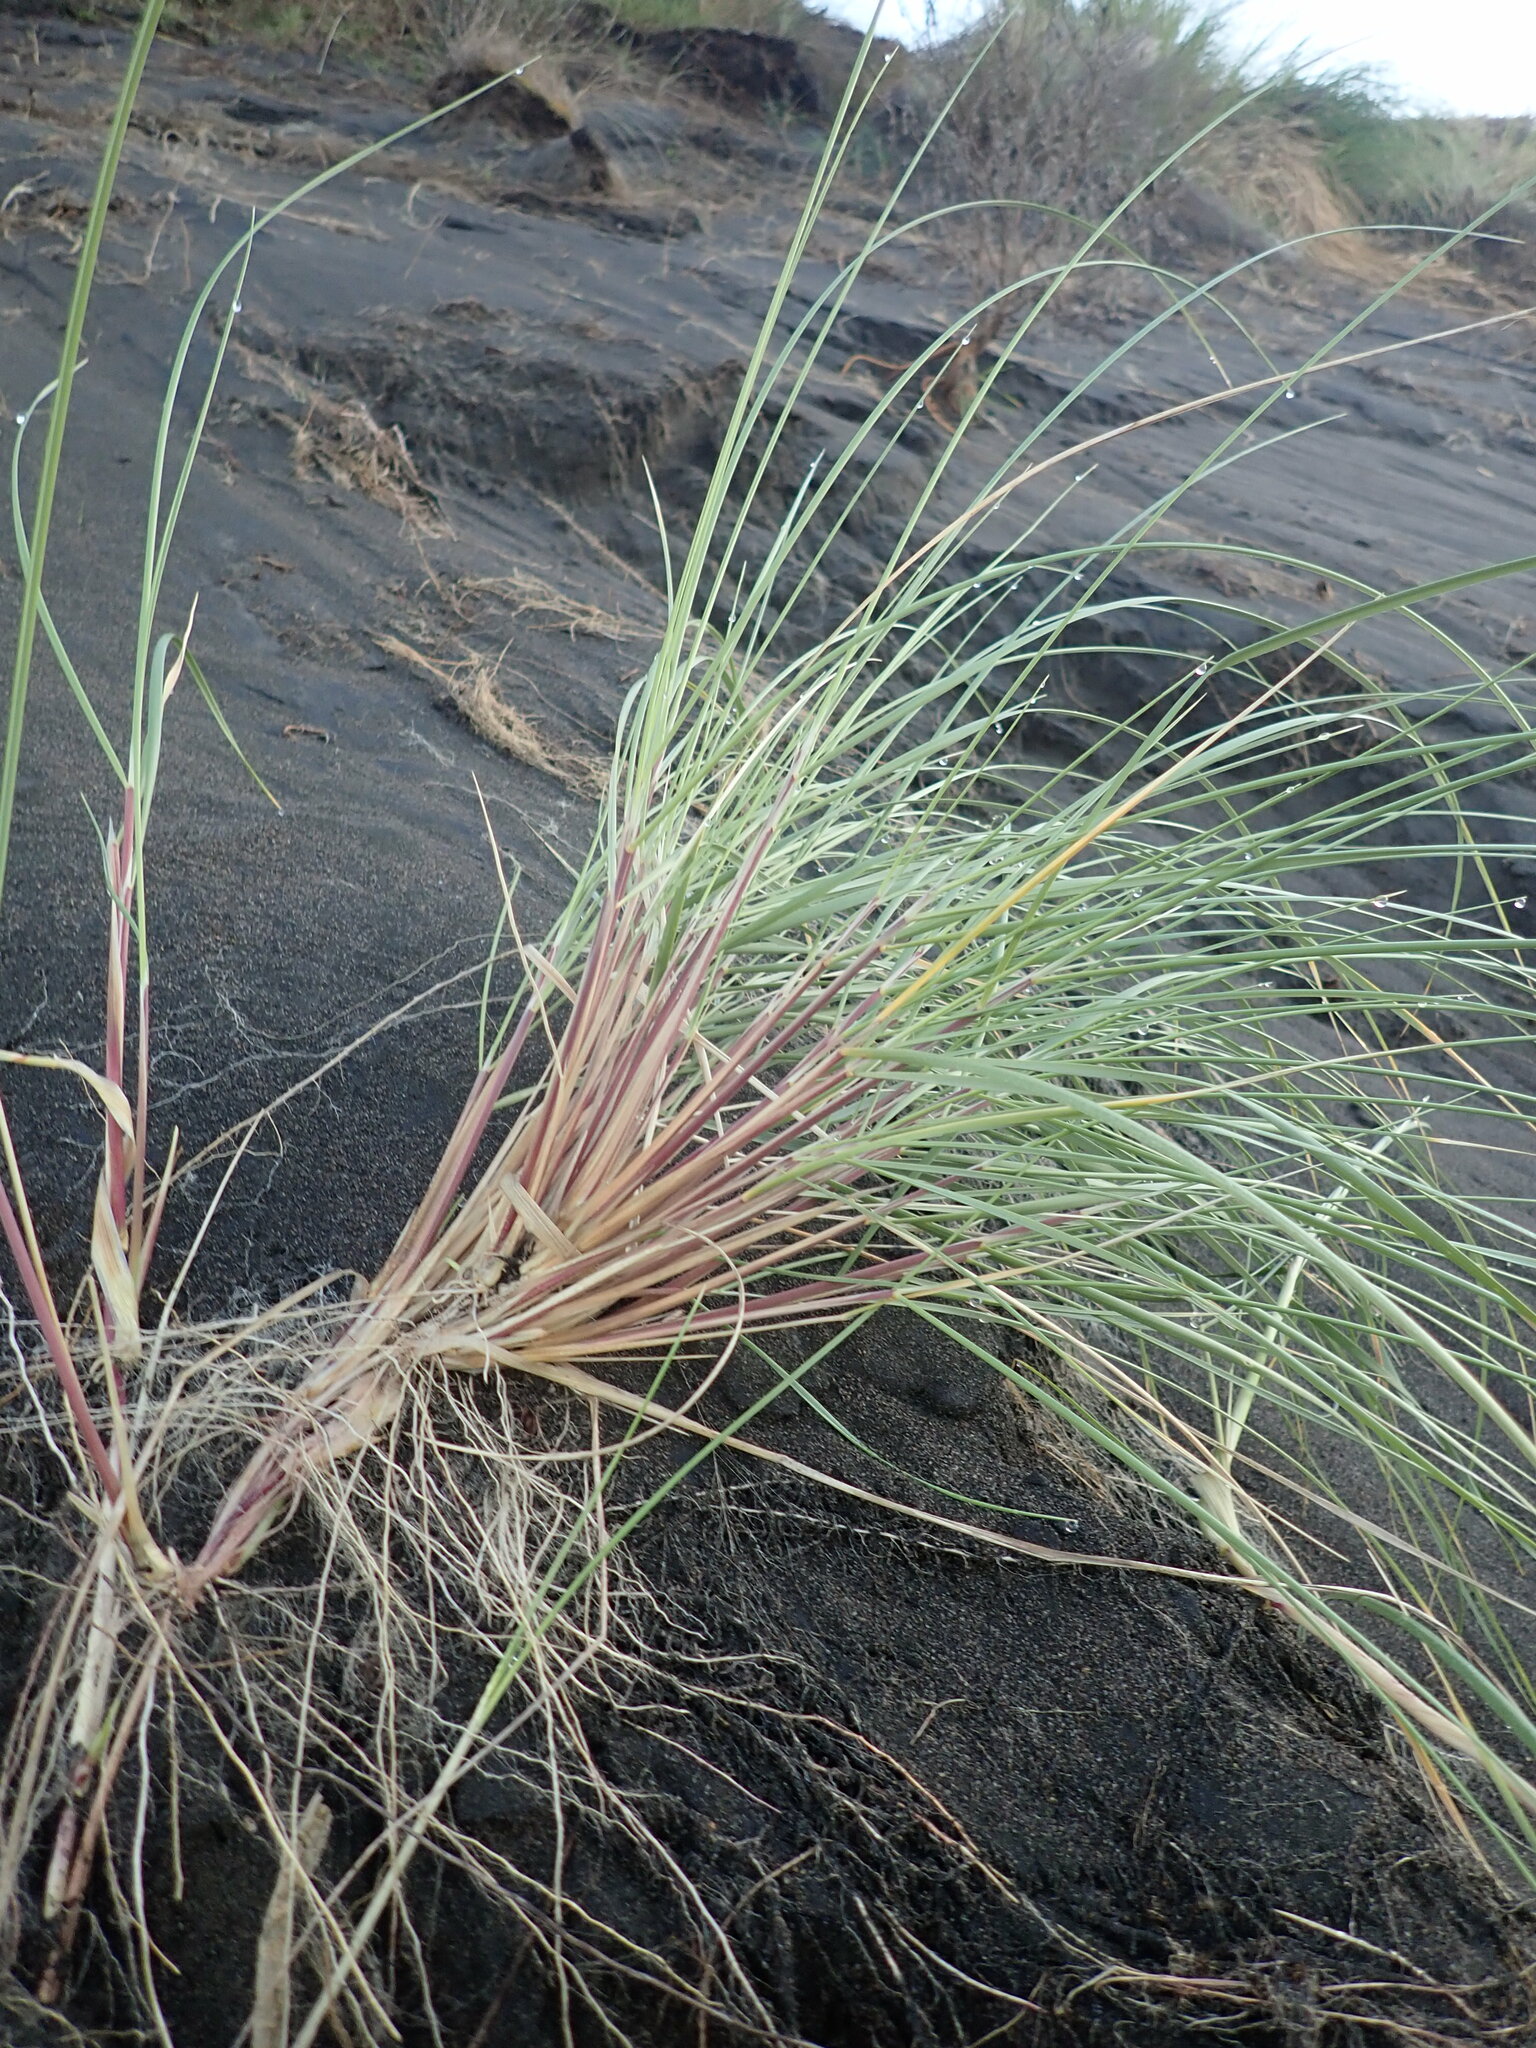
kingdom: Plantae
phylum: Tracheophyta
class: Liliopsida
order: Poales
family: Poaceae
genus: Calamagrostis
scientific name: Calamagrostis arenaria
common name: European beachgrass
